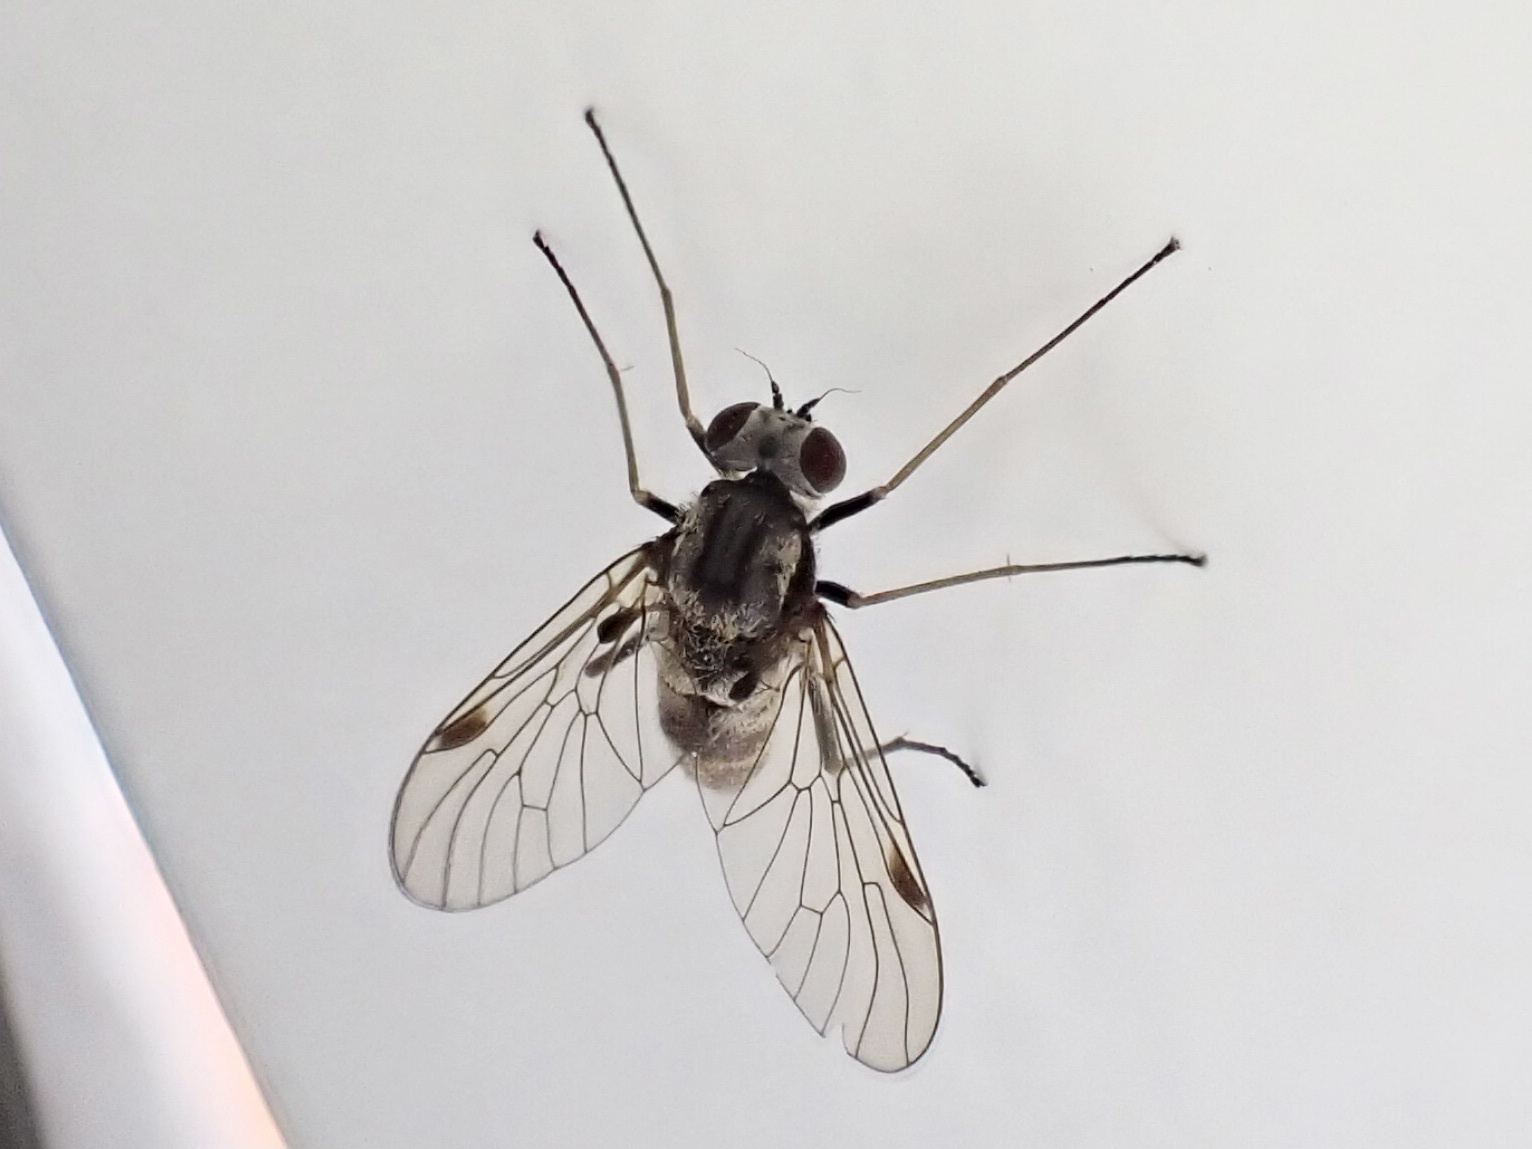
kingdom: Animalia
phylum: Arthropoda
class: Insecta
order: Diptera
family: Rhagionidae
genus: Chrysopilus
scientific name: Chrysopilus cristatus
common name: Black snipefly
